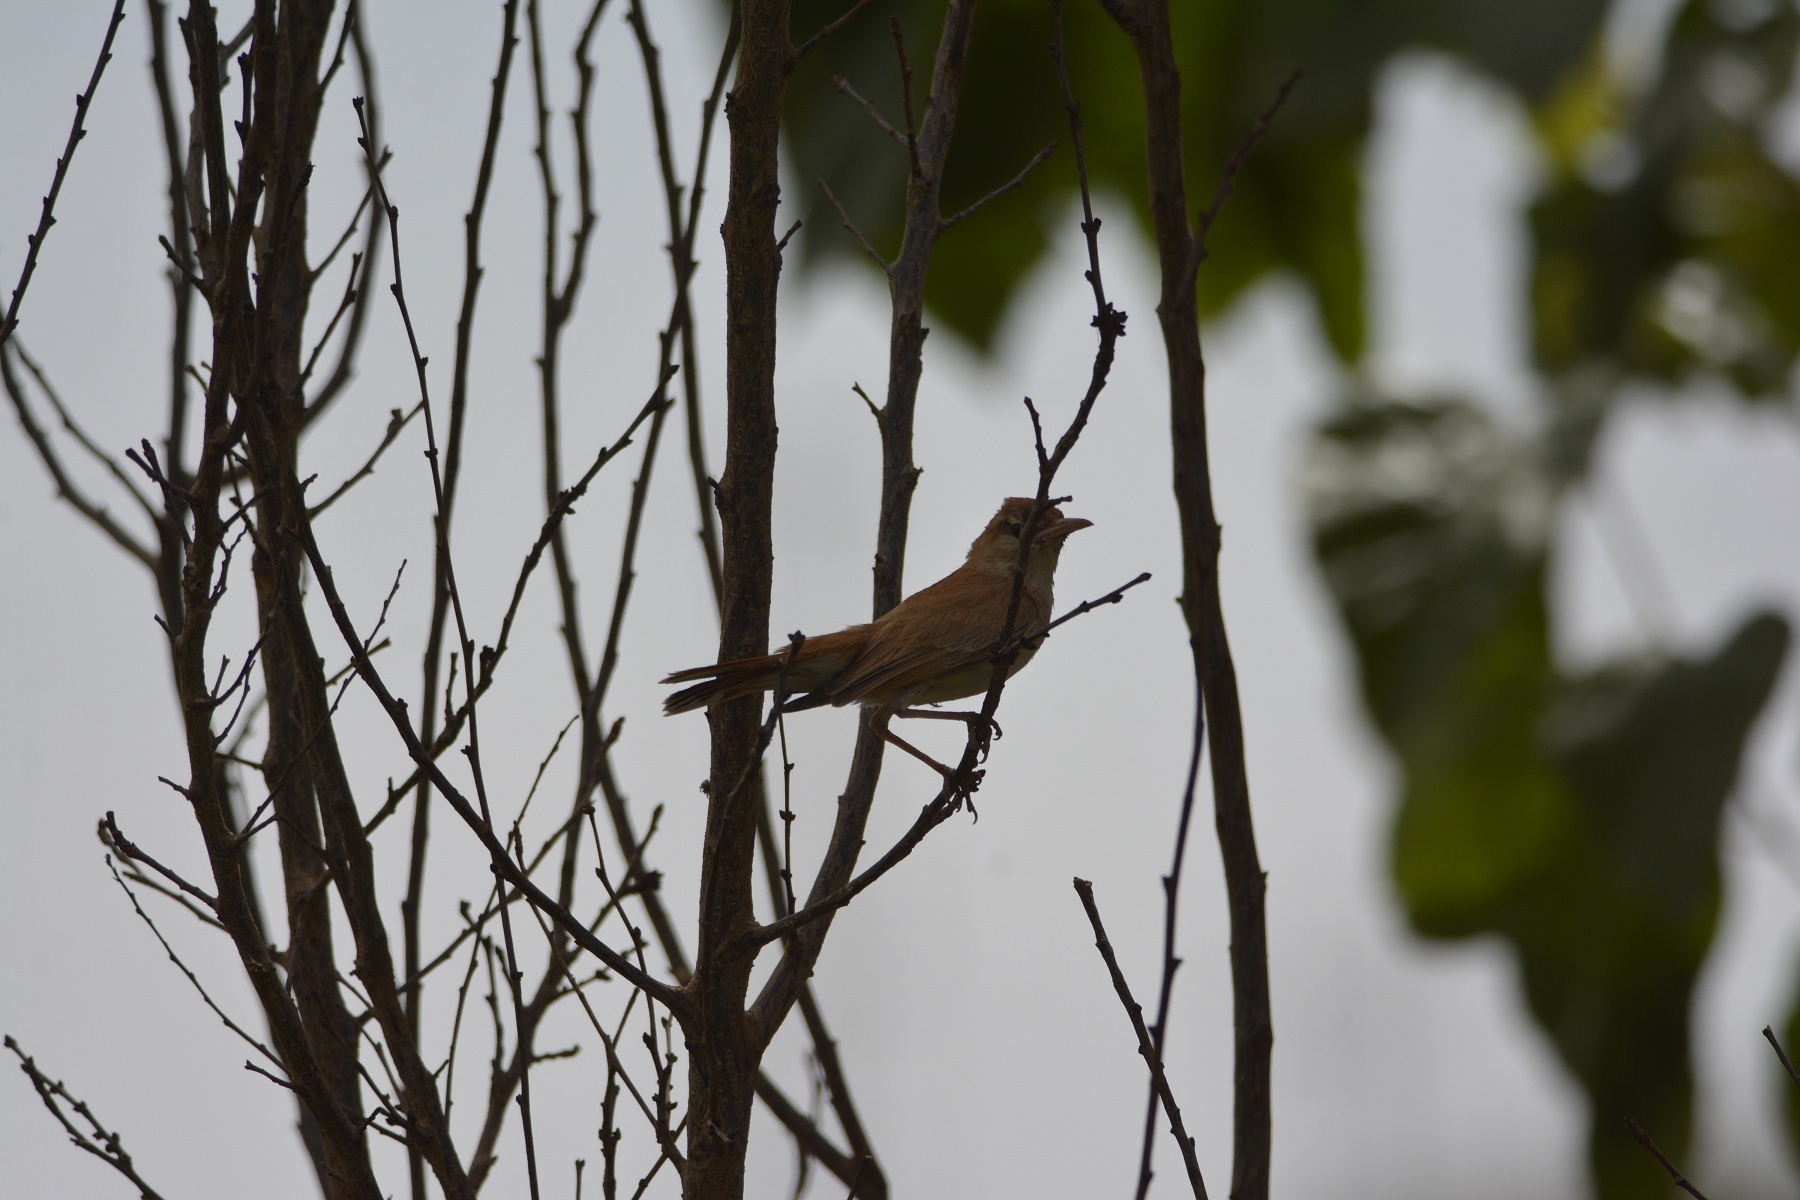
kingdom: Animalia
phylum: Chordata
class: Aves
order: Passeriformes
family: Muscicapidae
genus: Erythropygia
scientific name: Erythropygia galactotes
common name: Rufous-tailed scrub robin
